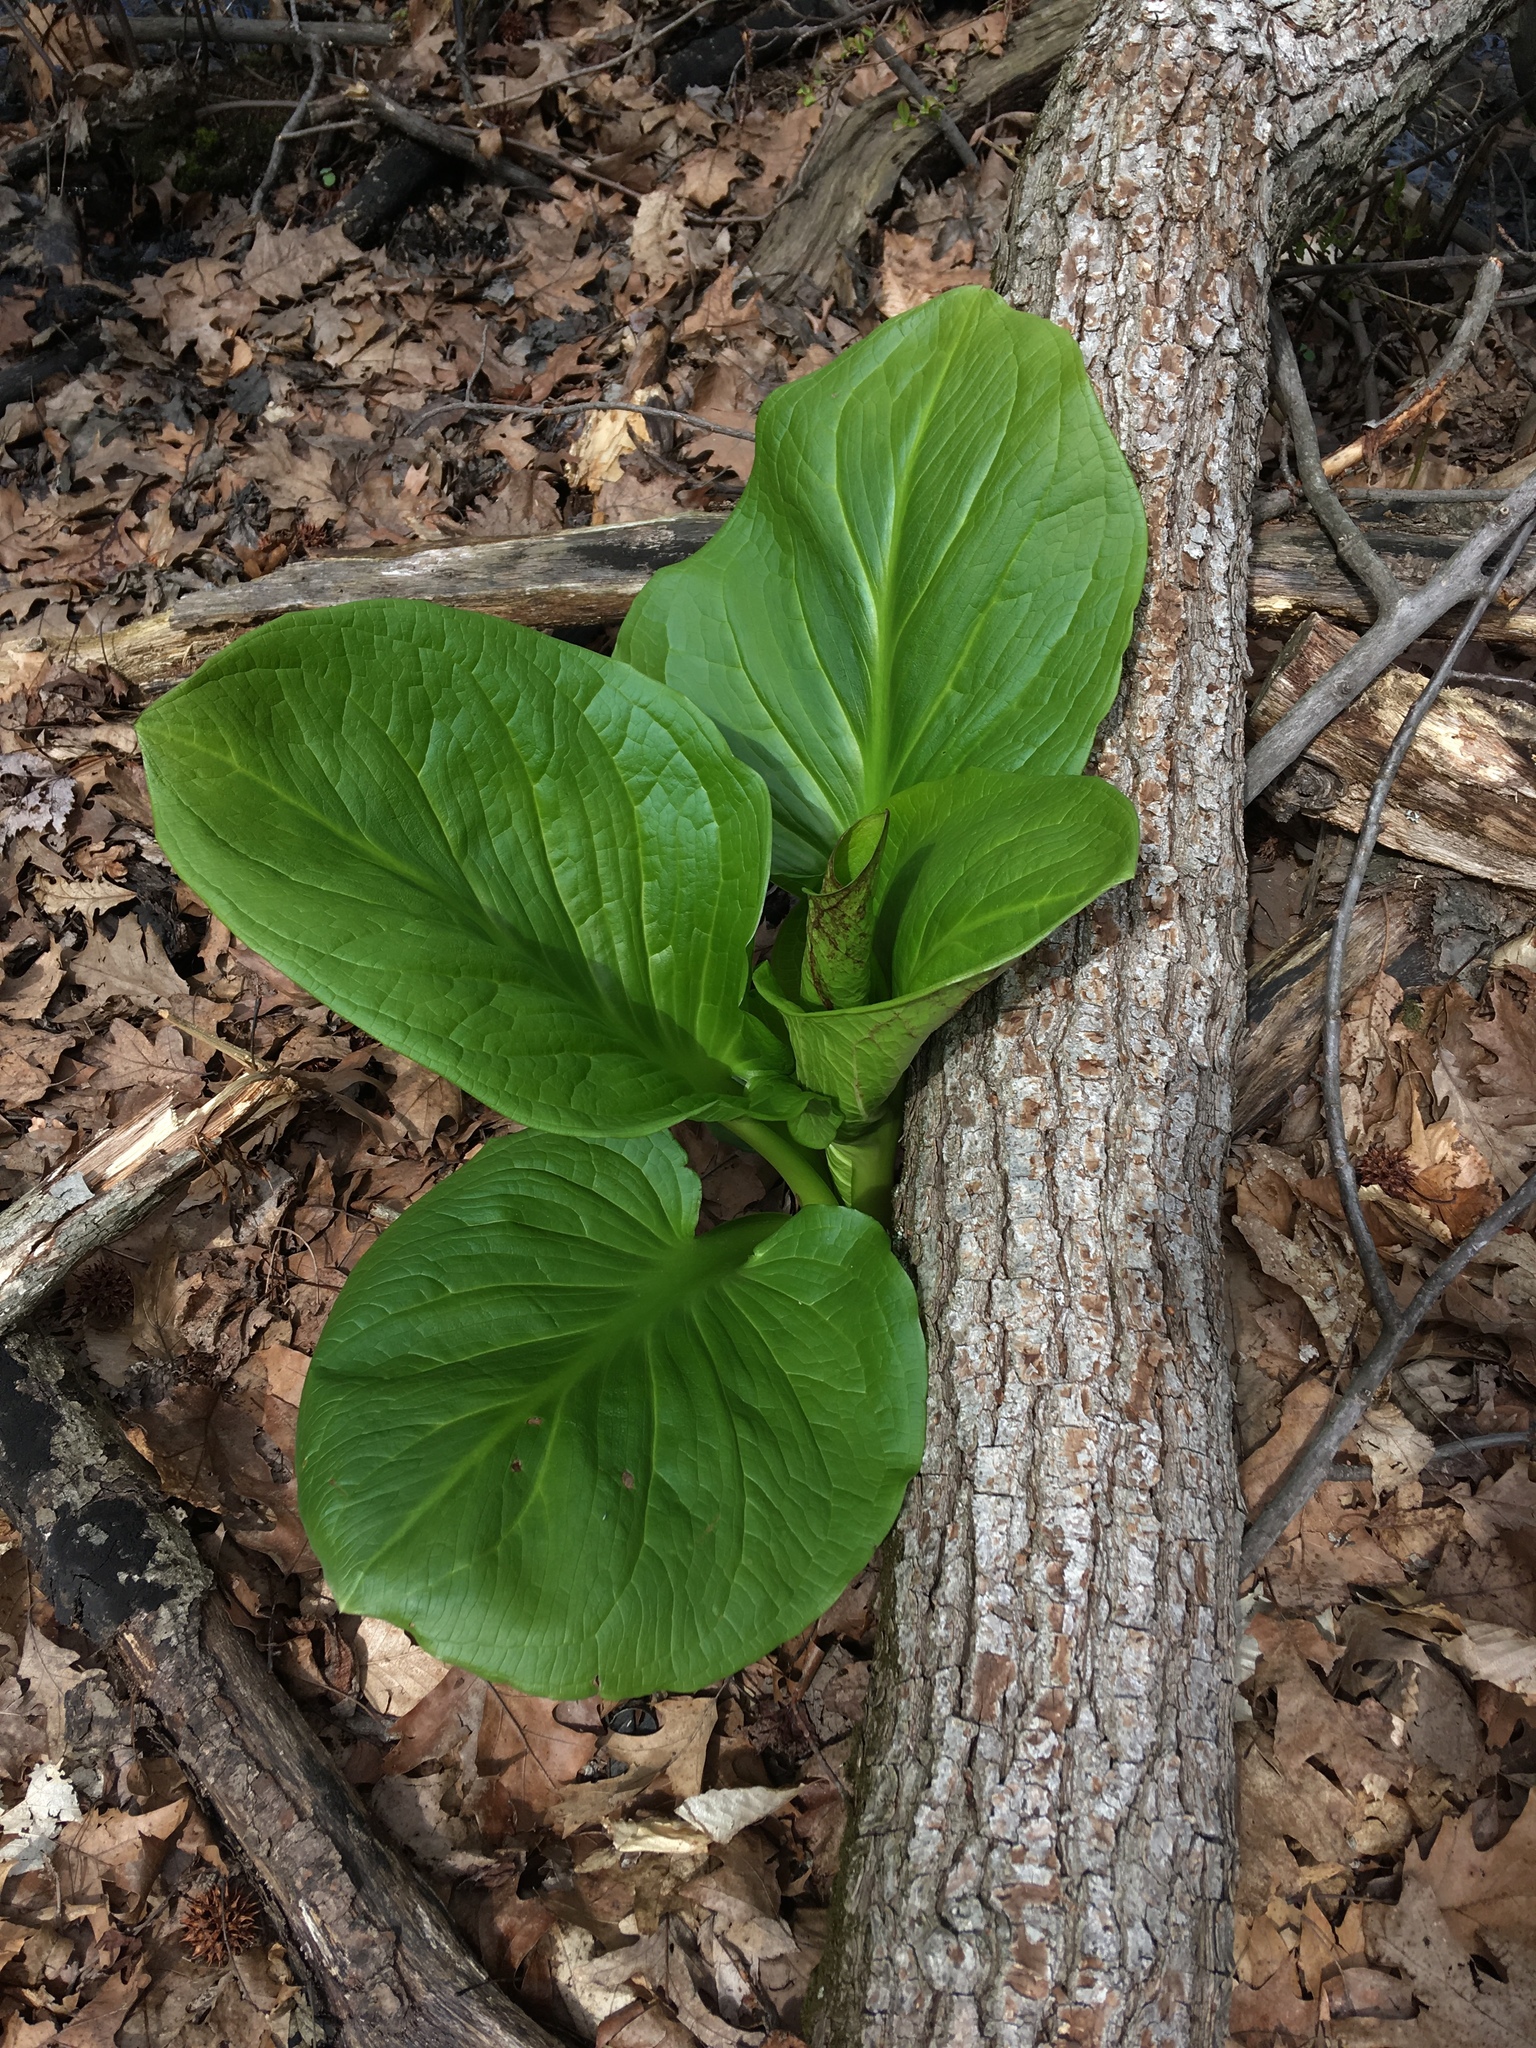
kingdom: Plantae
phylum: Tracheophyta
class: Liliopsida
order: Alismatales
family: Araceae
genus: Symplocarpus
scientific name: Symplocarpus foetidus
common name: Eastern skunk cabbage
